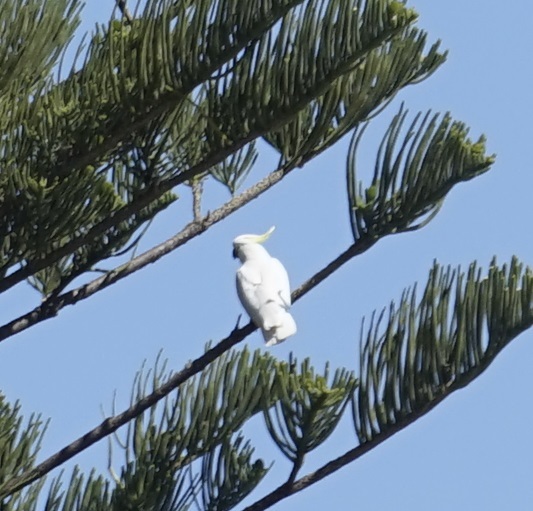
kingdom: Animalia
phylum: Chordata
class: Aves
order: Psittaciformes
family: Psittacidae
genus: Cacatua
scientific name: Cacatua galerita
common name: Sulphur-crested cockatoo
